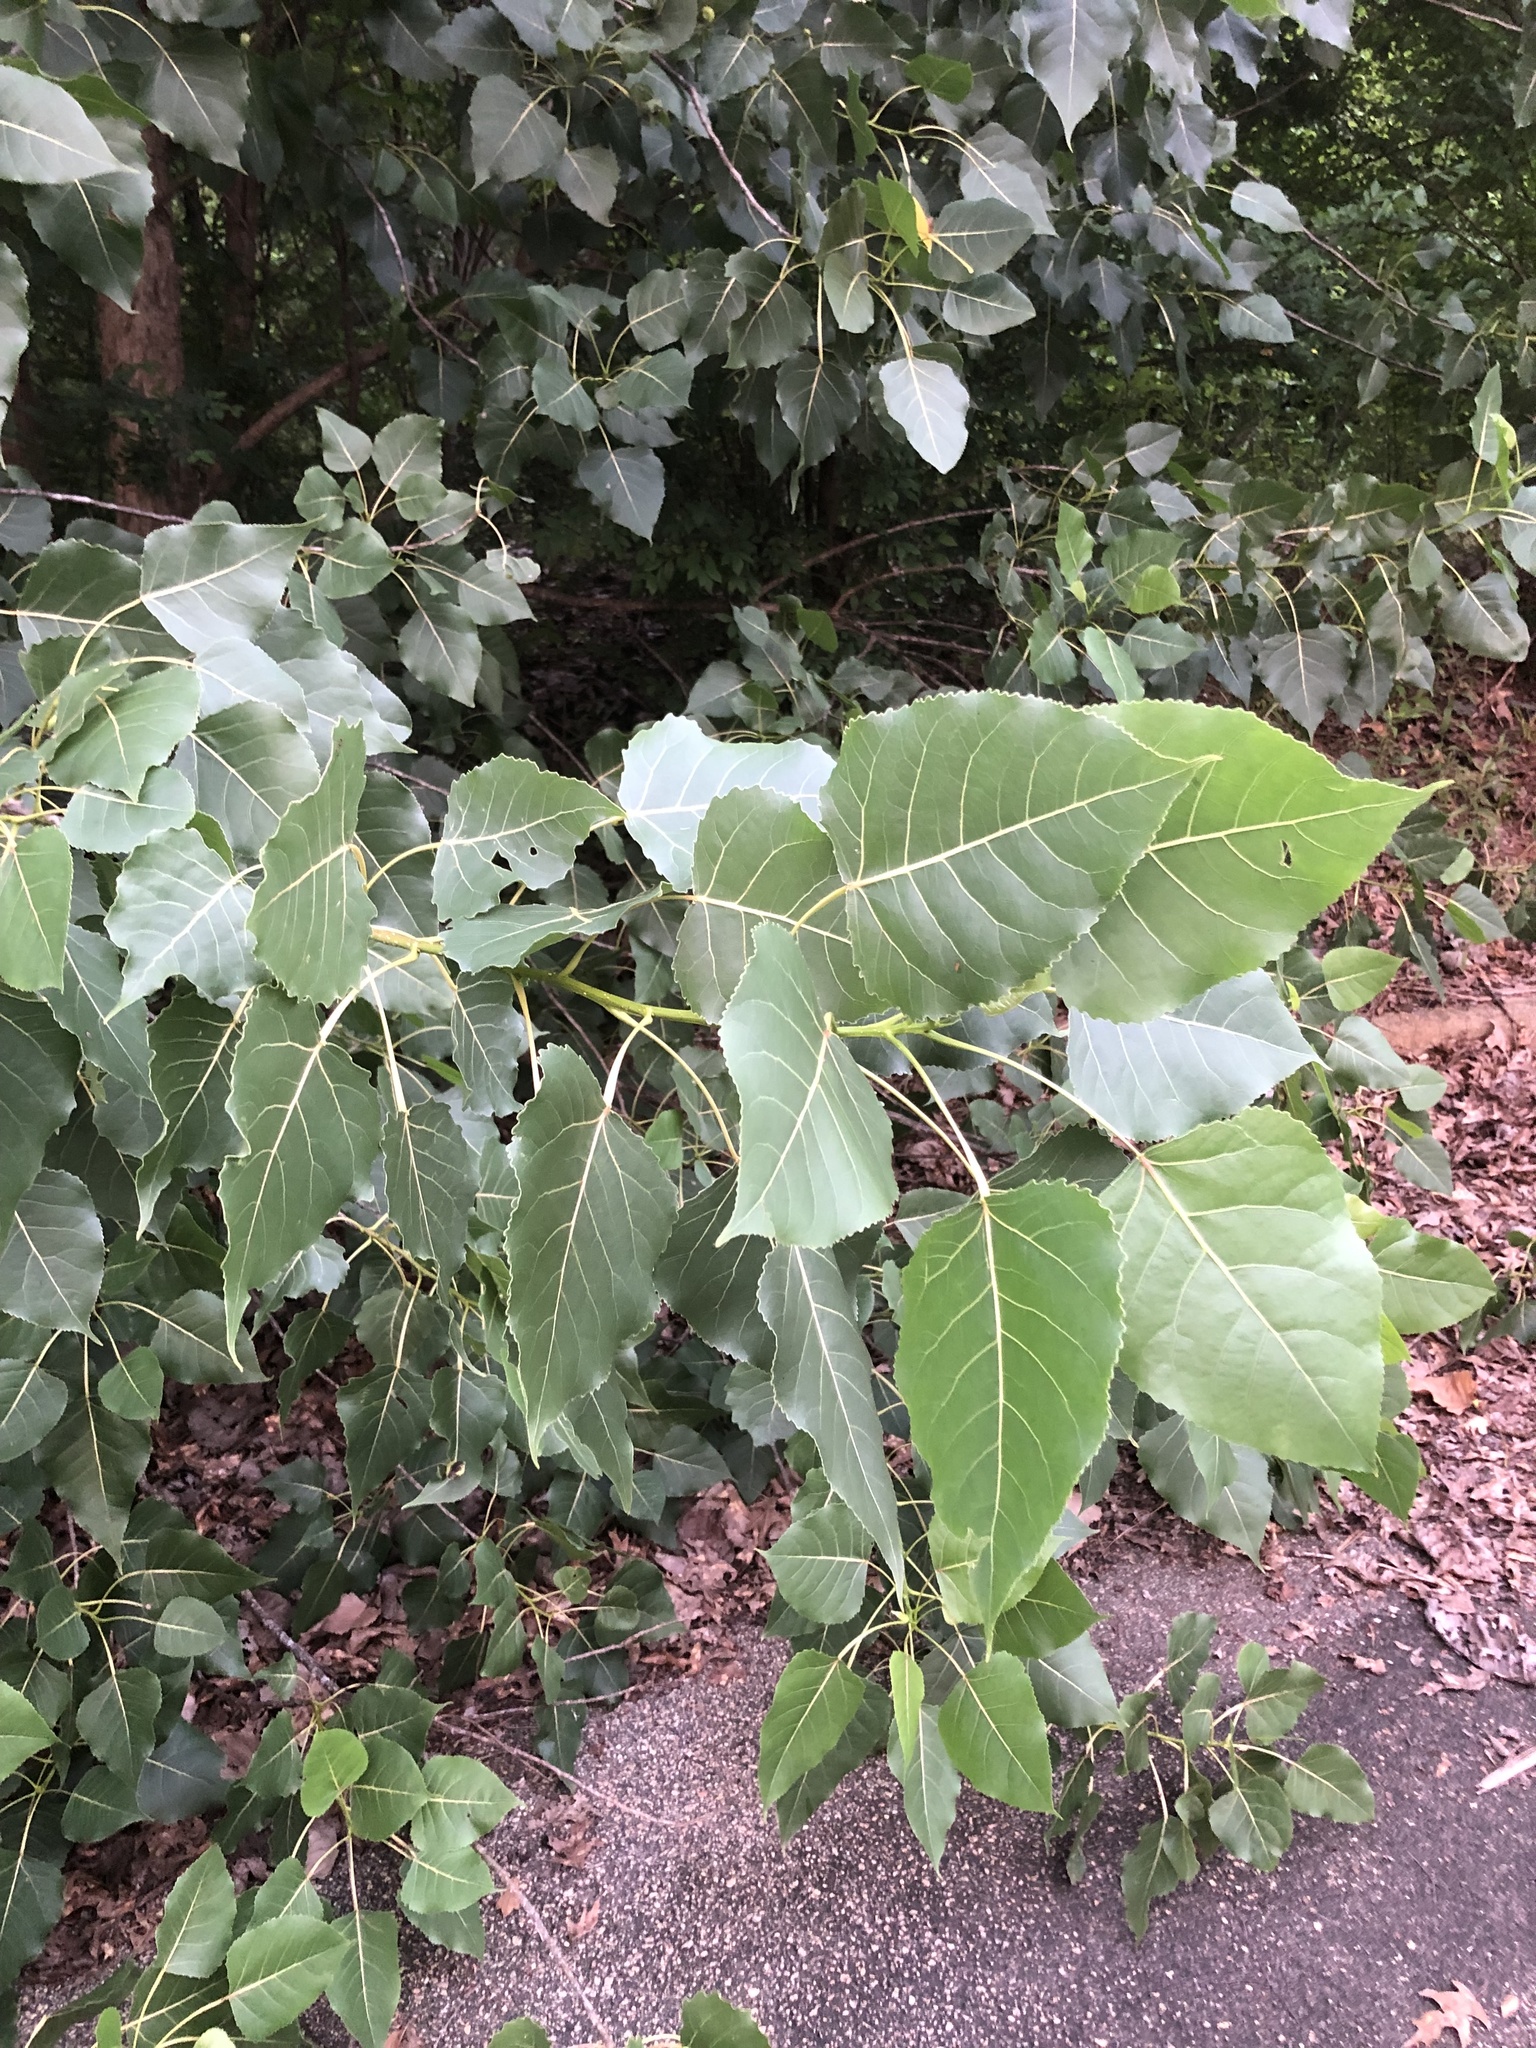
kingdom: Plantae
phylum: Tracheophyta
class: Magnoliopsida
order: Malpighiales
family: Salicaceae
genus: Populus
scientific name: Populus deltoides
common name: Eastern cottonwood
